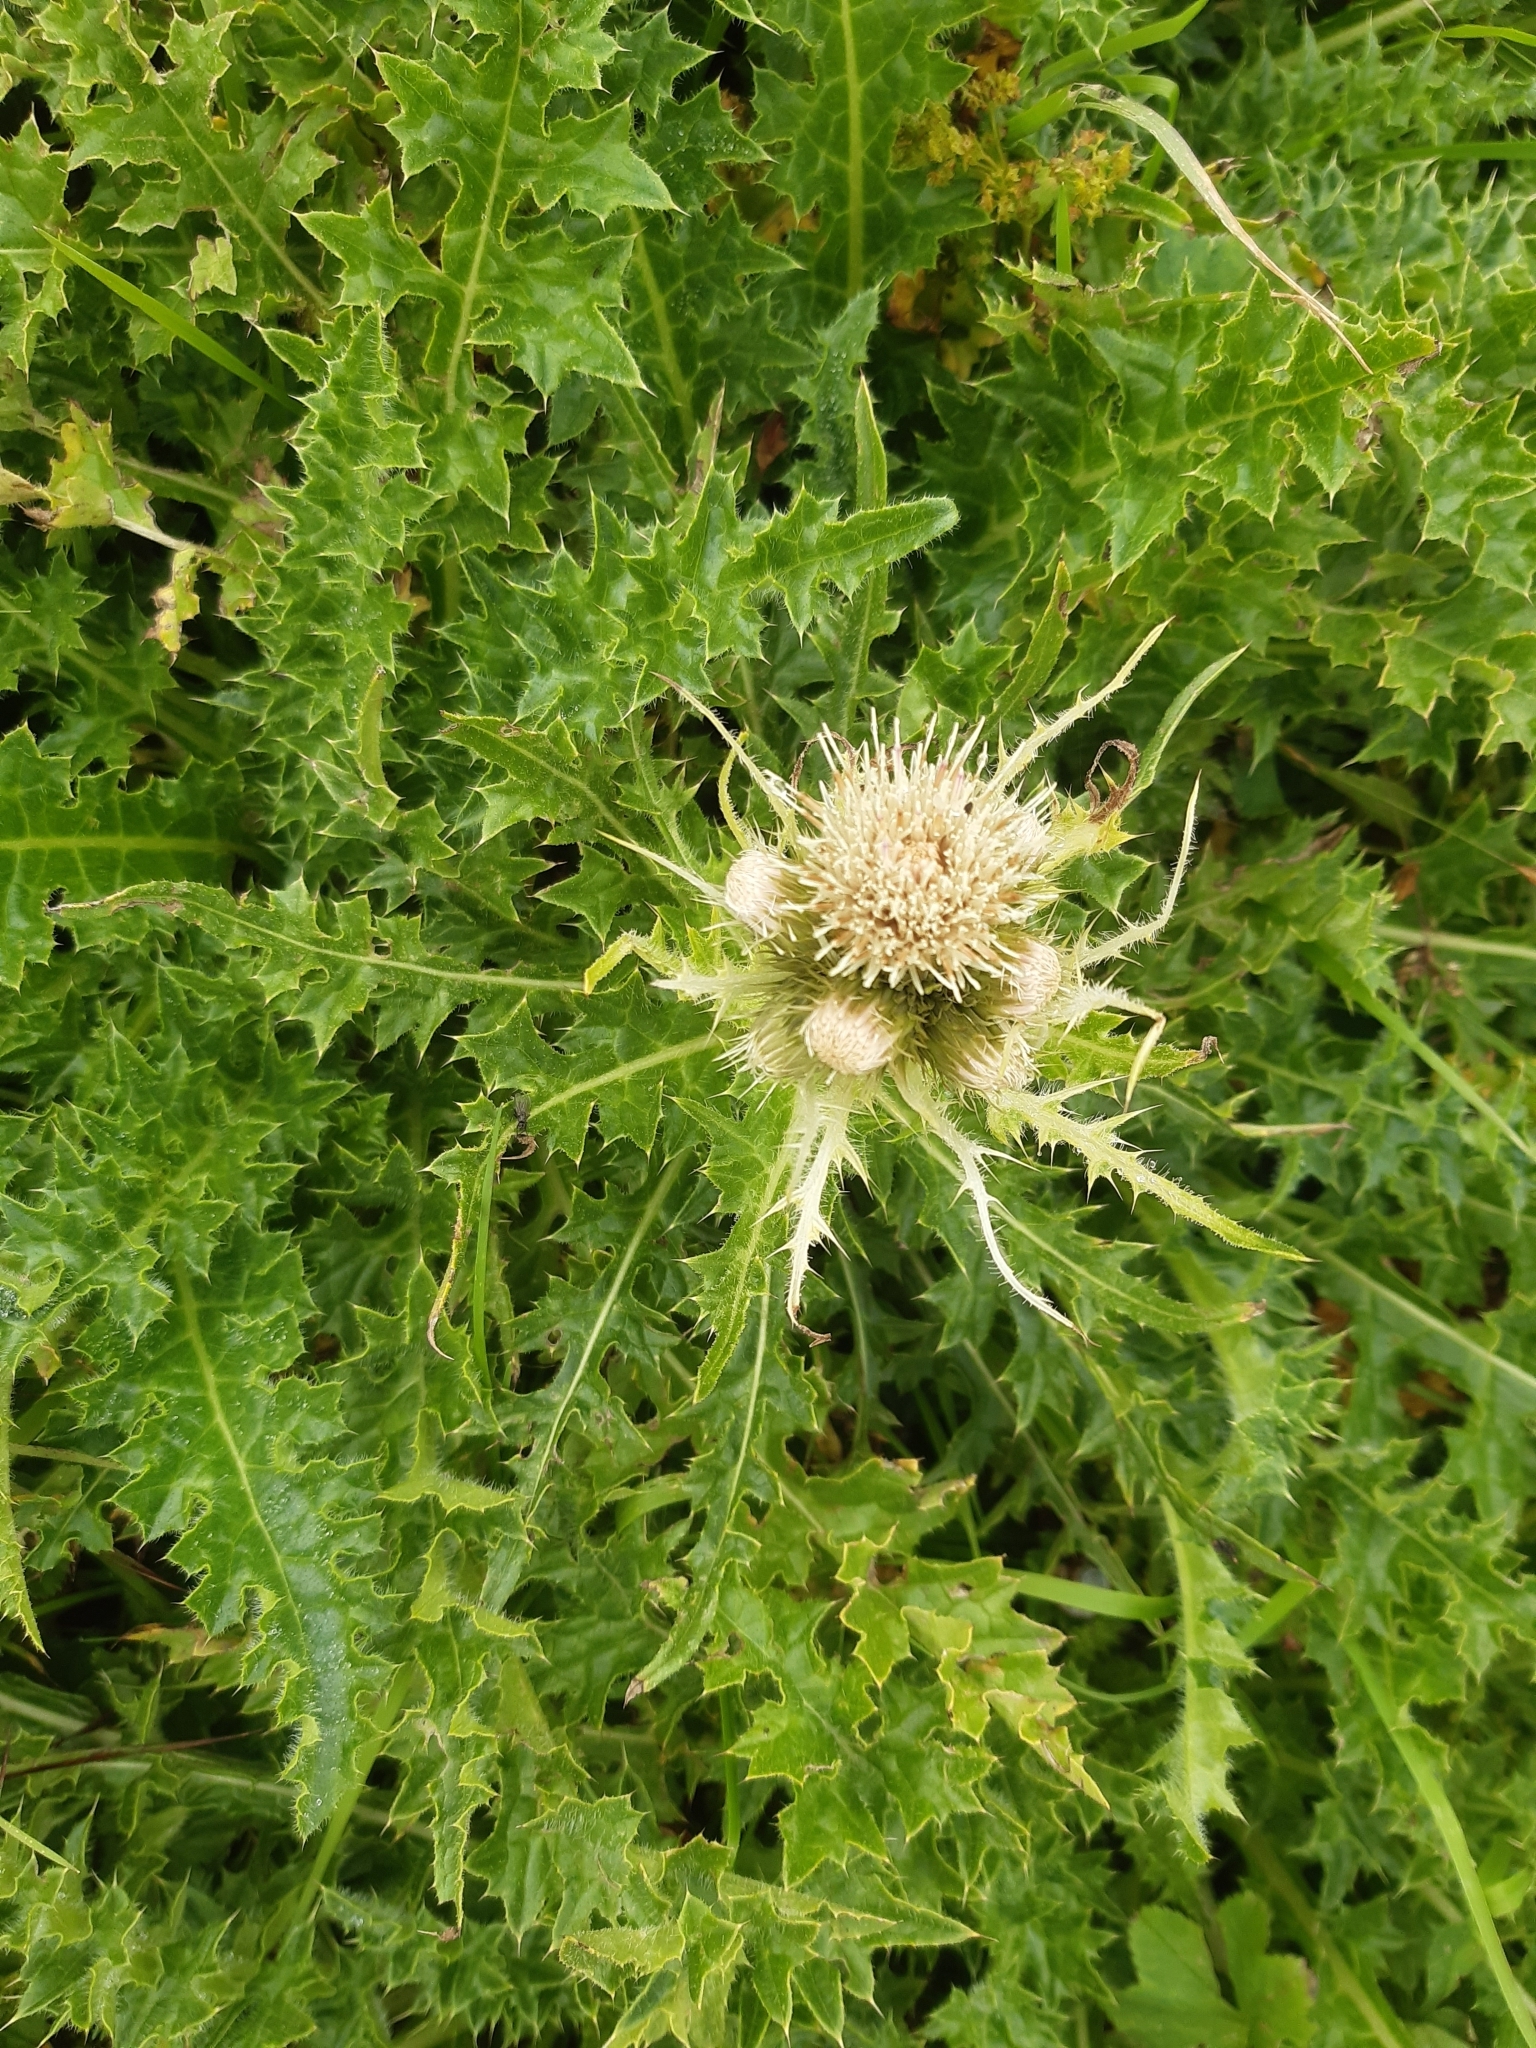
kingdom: Plantae
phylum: Tracheophyta
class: Magnoliopsida
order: Asterales
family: Asteraceae
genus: Cirsium
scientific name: Cirsium spinosissimum
